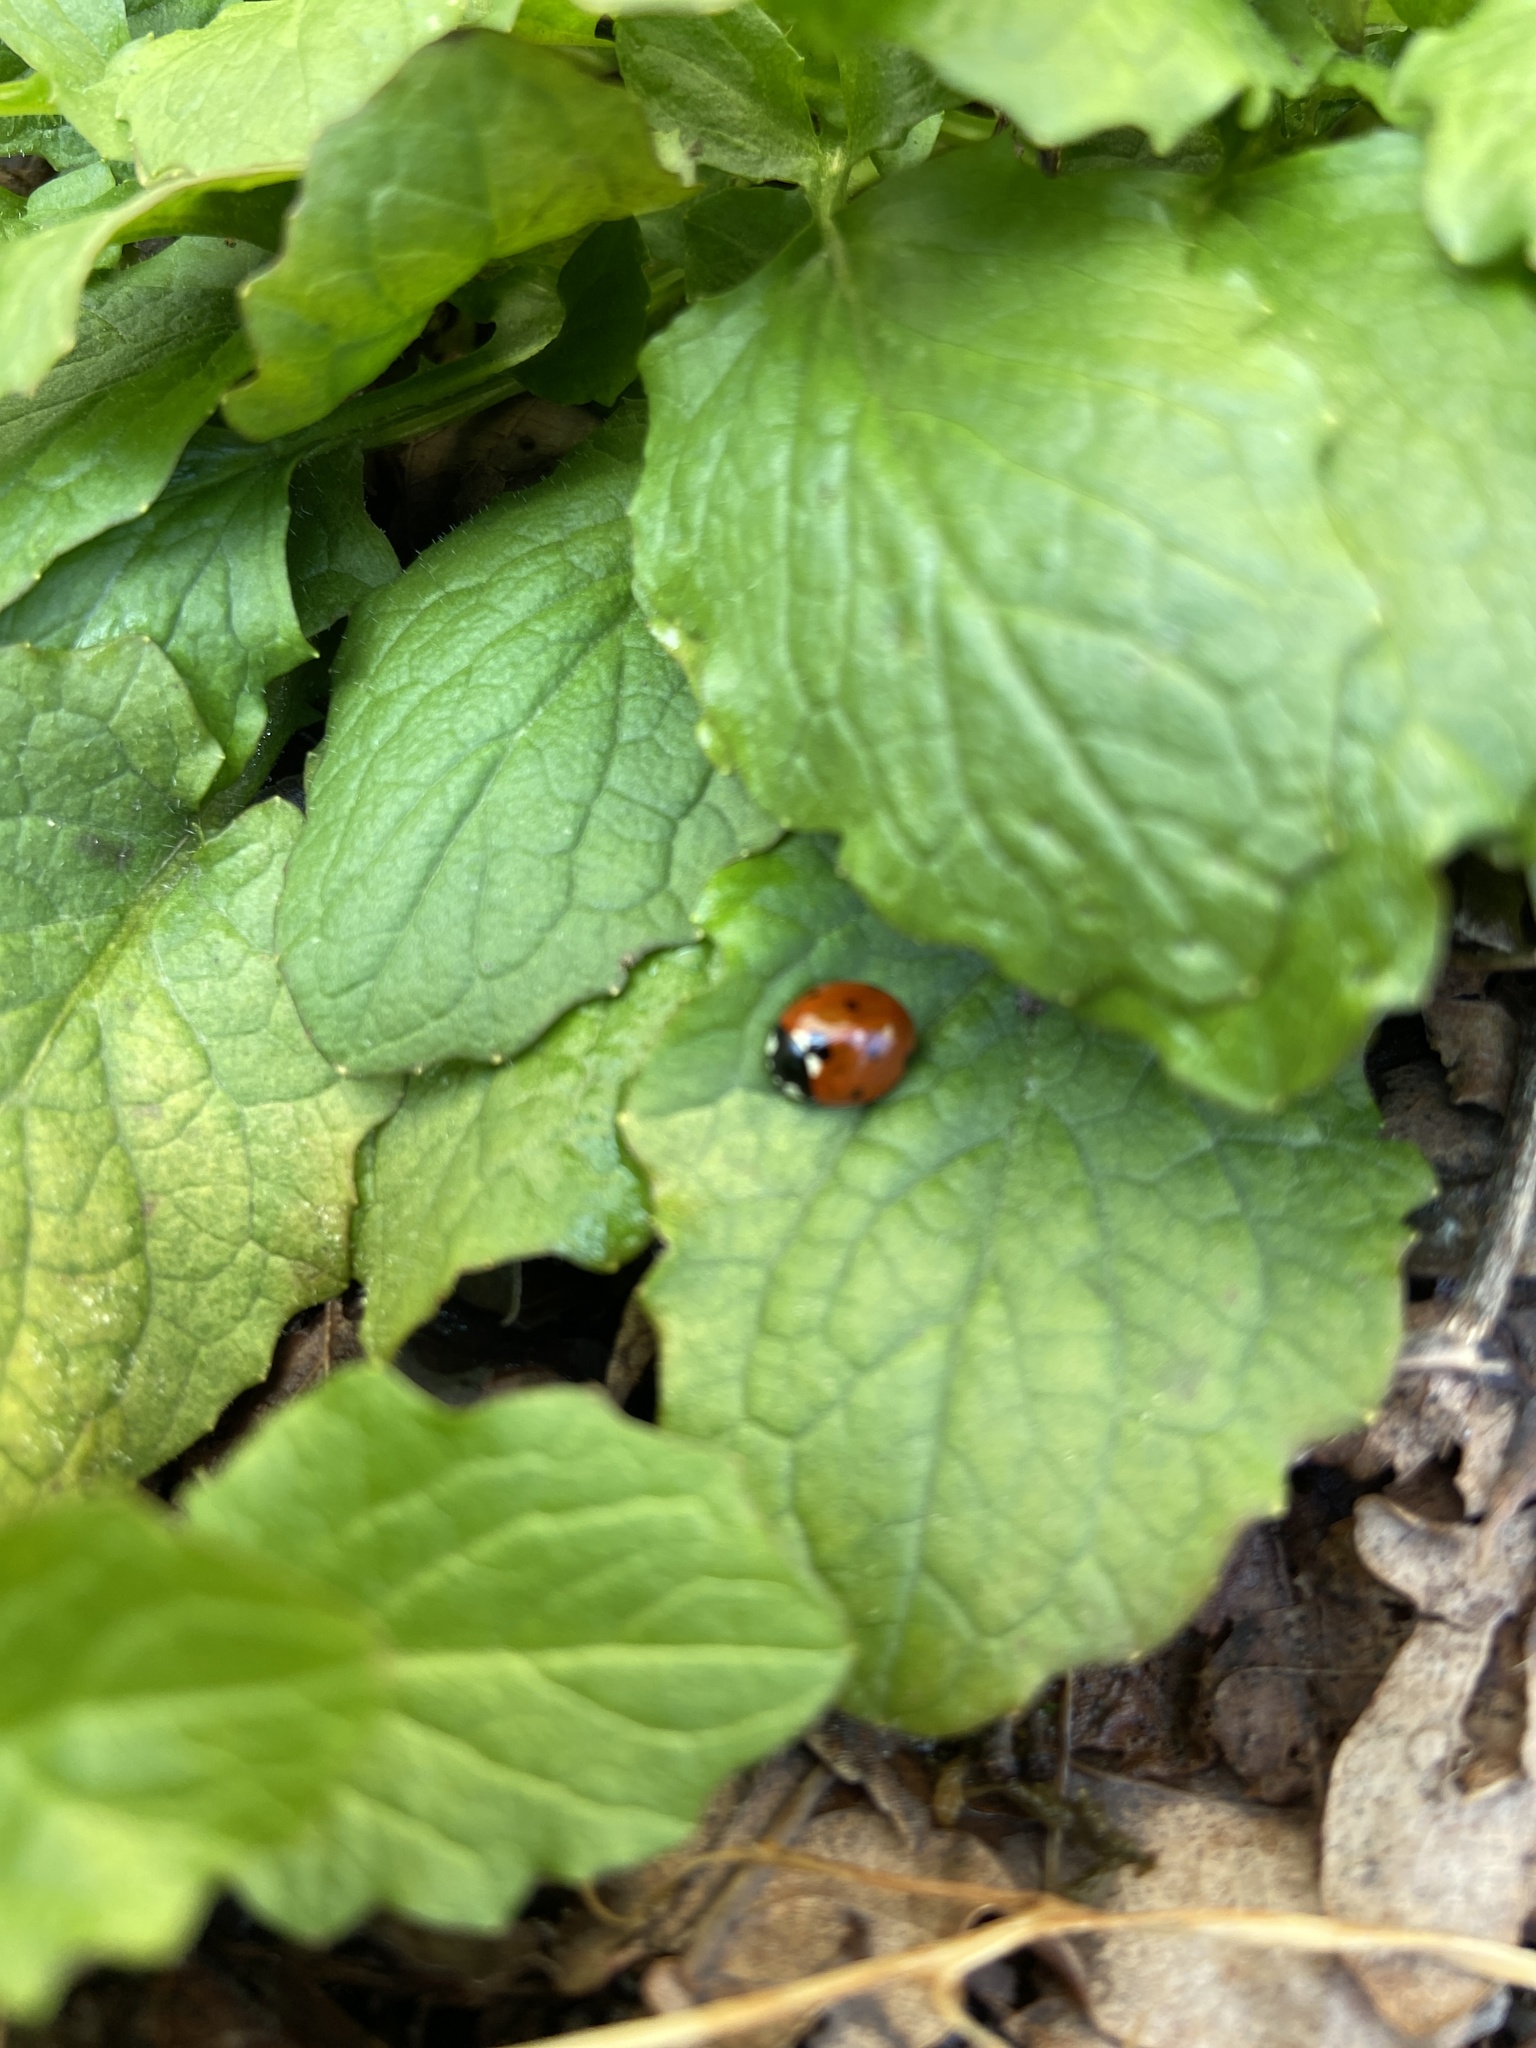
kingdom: Animalia
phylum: Arthropoda
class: Insecta
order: Coleoptera
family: Coccinellidae
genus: Coccinella
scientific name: Coccinella septempunctata
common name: Sevenspotted lady beetle
